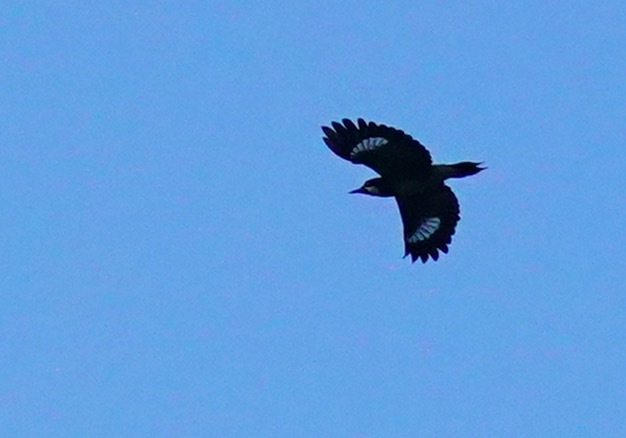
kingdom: Animalia
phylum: Chordata
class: Aves
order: Piciformes
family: Picidae
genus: Melanerpes
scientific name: Melanerpes formicivorus
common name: Acorn woodpecker
